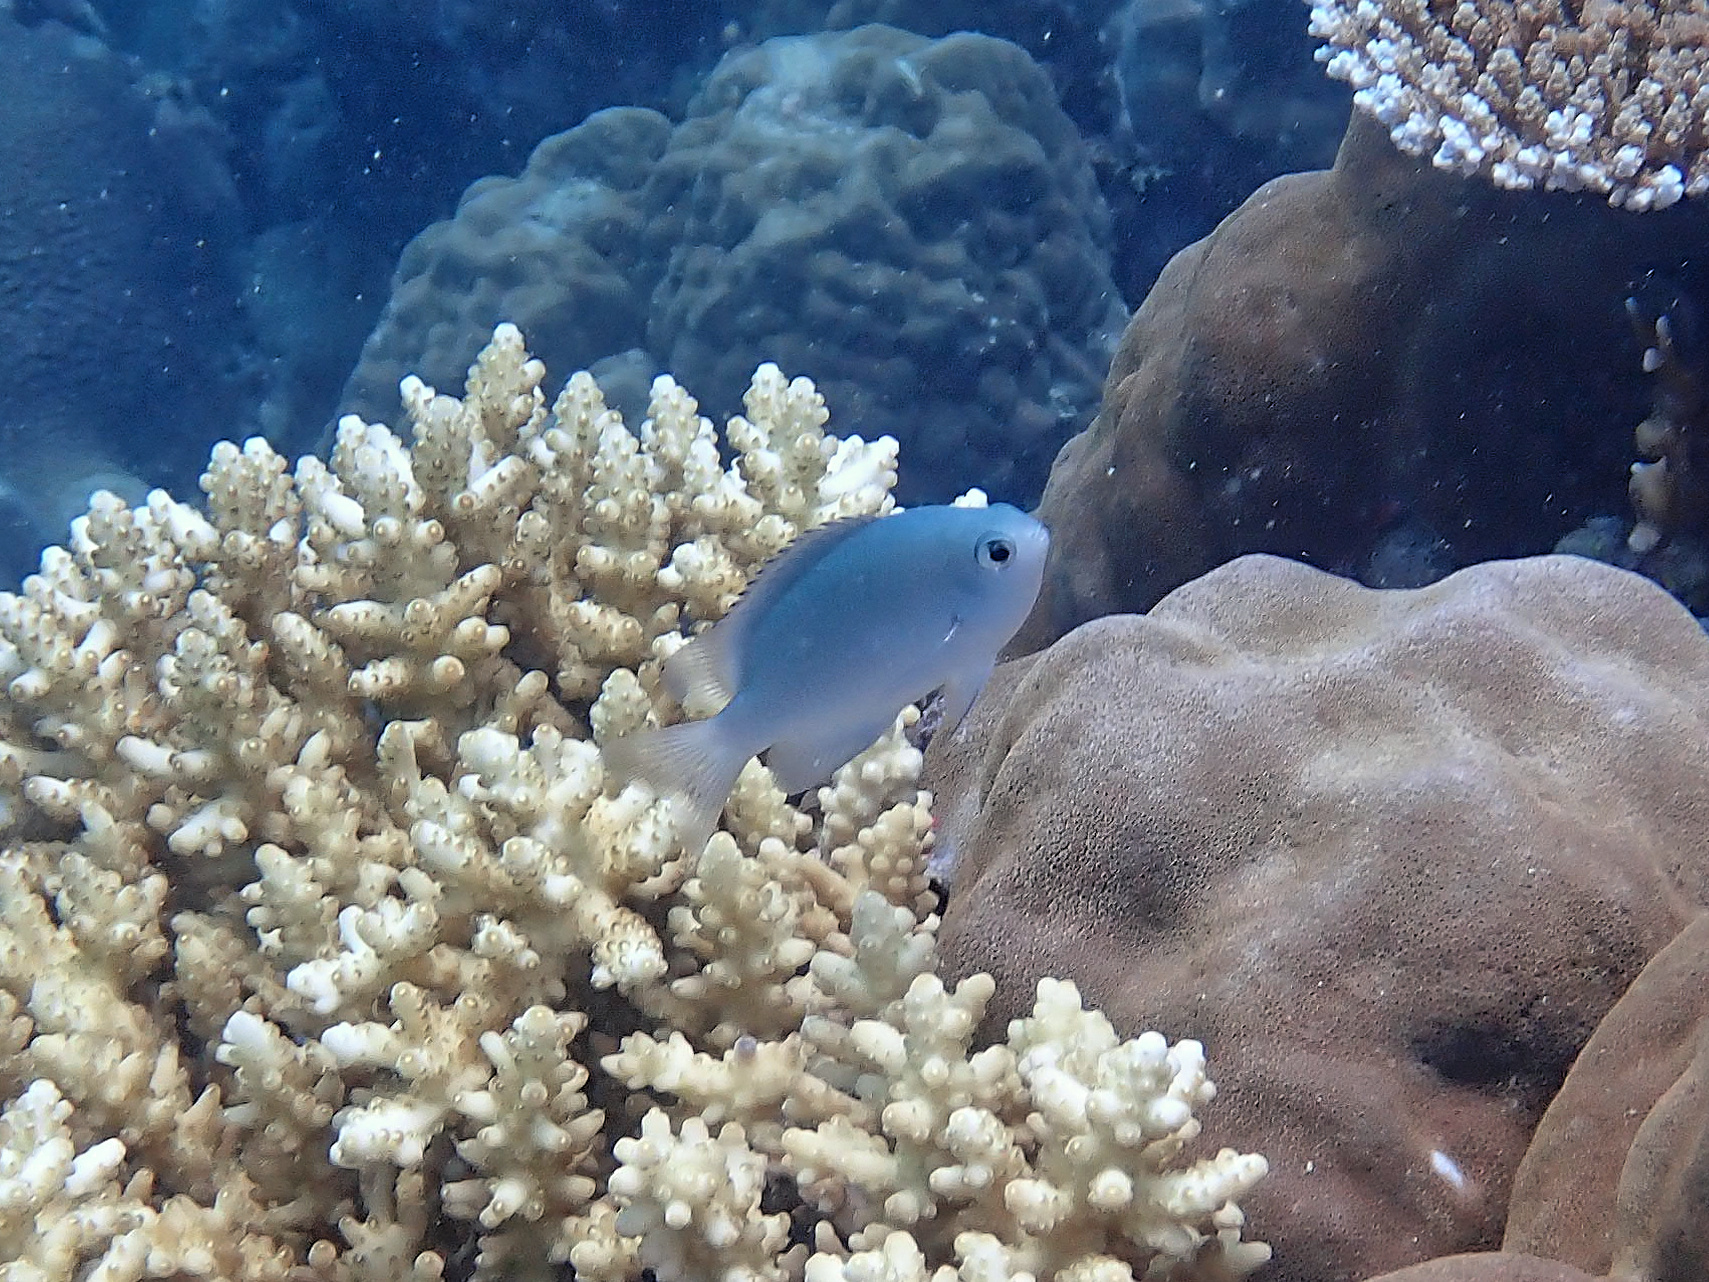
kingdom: Animalia
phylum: Chordata
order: Perciformes
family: Pomacentridae
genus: Pomacentrus
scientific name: Pomacentrus lepidogenys
